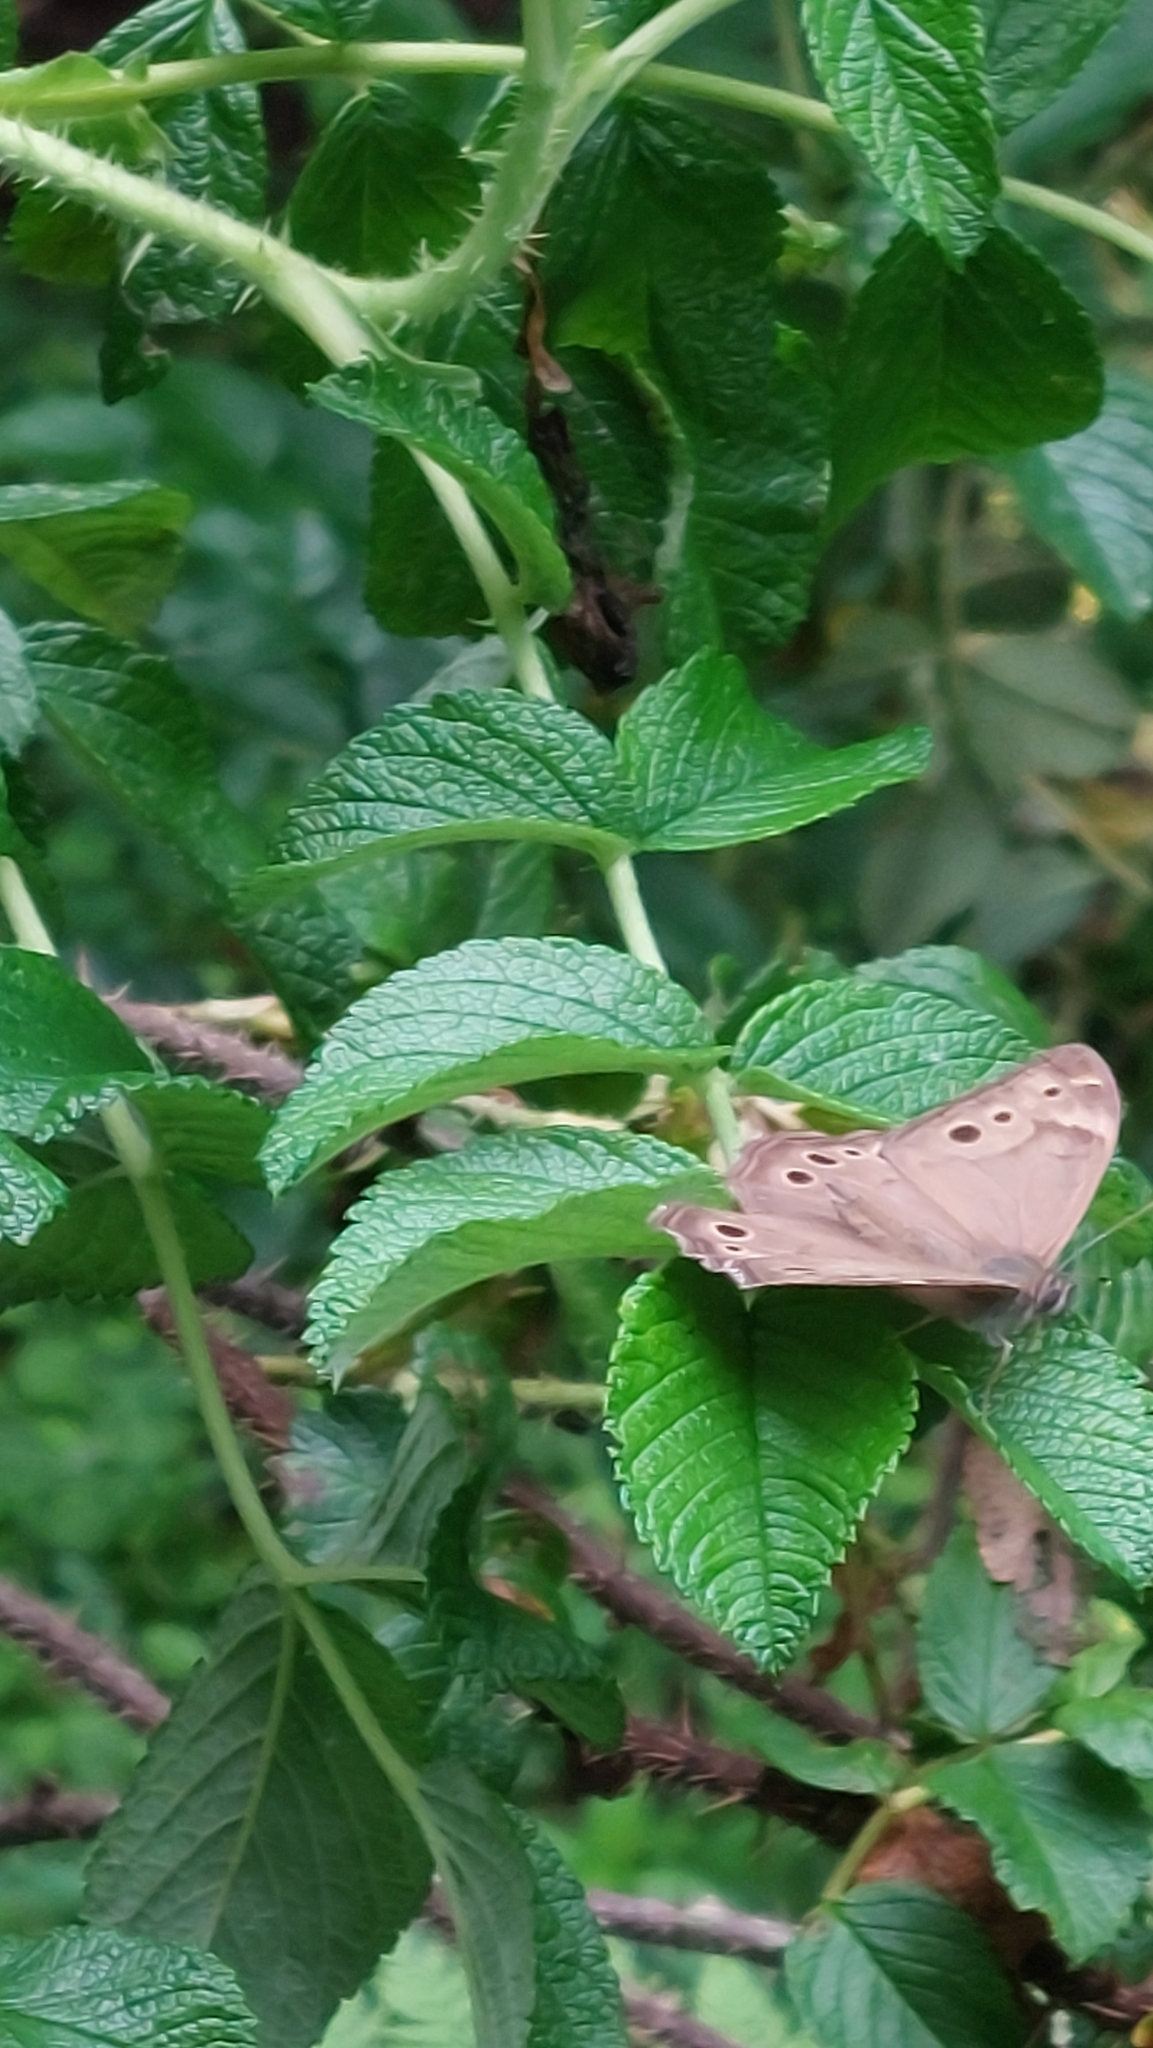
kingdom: Animalia
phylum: Arthropoda
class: Insecta
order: Lepidoptera
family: Nymphalidae
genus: Lethe
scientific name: Lethe anthedon
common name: Northern pearly-eye
